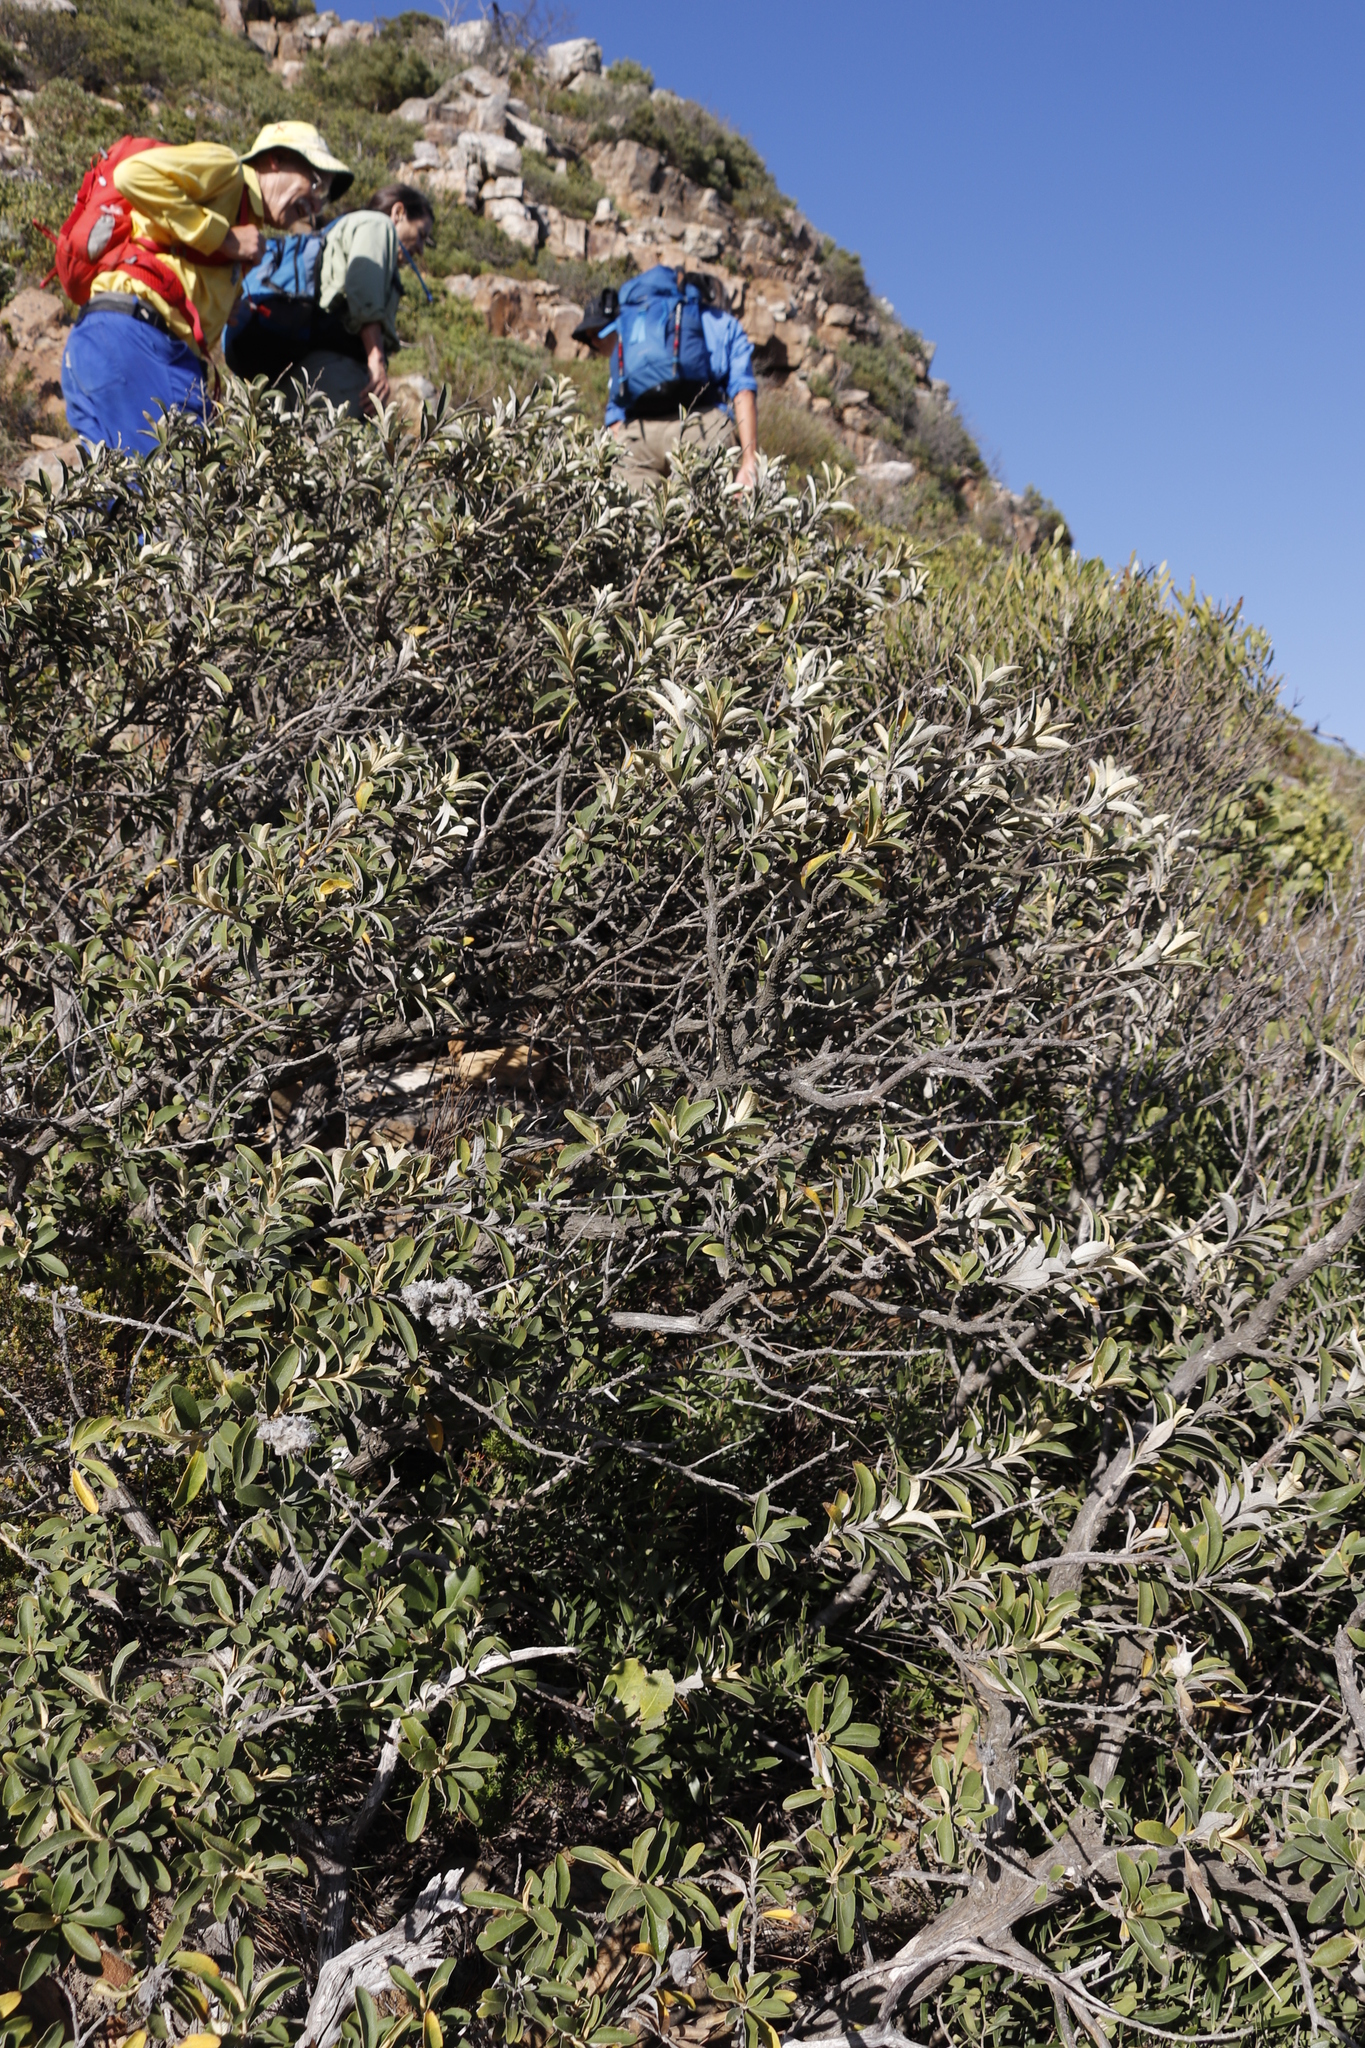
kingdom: Plantae
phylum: Tracheophyta
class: Magnoliopsida
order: Asterales
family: Asteraceae
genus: Tarchonanthus
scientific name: Tarchonanthus littoralis
